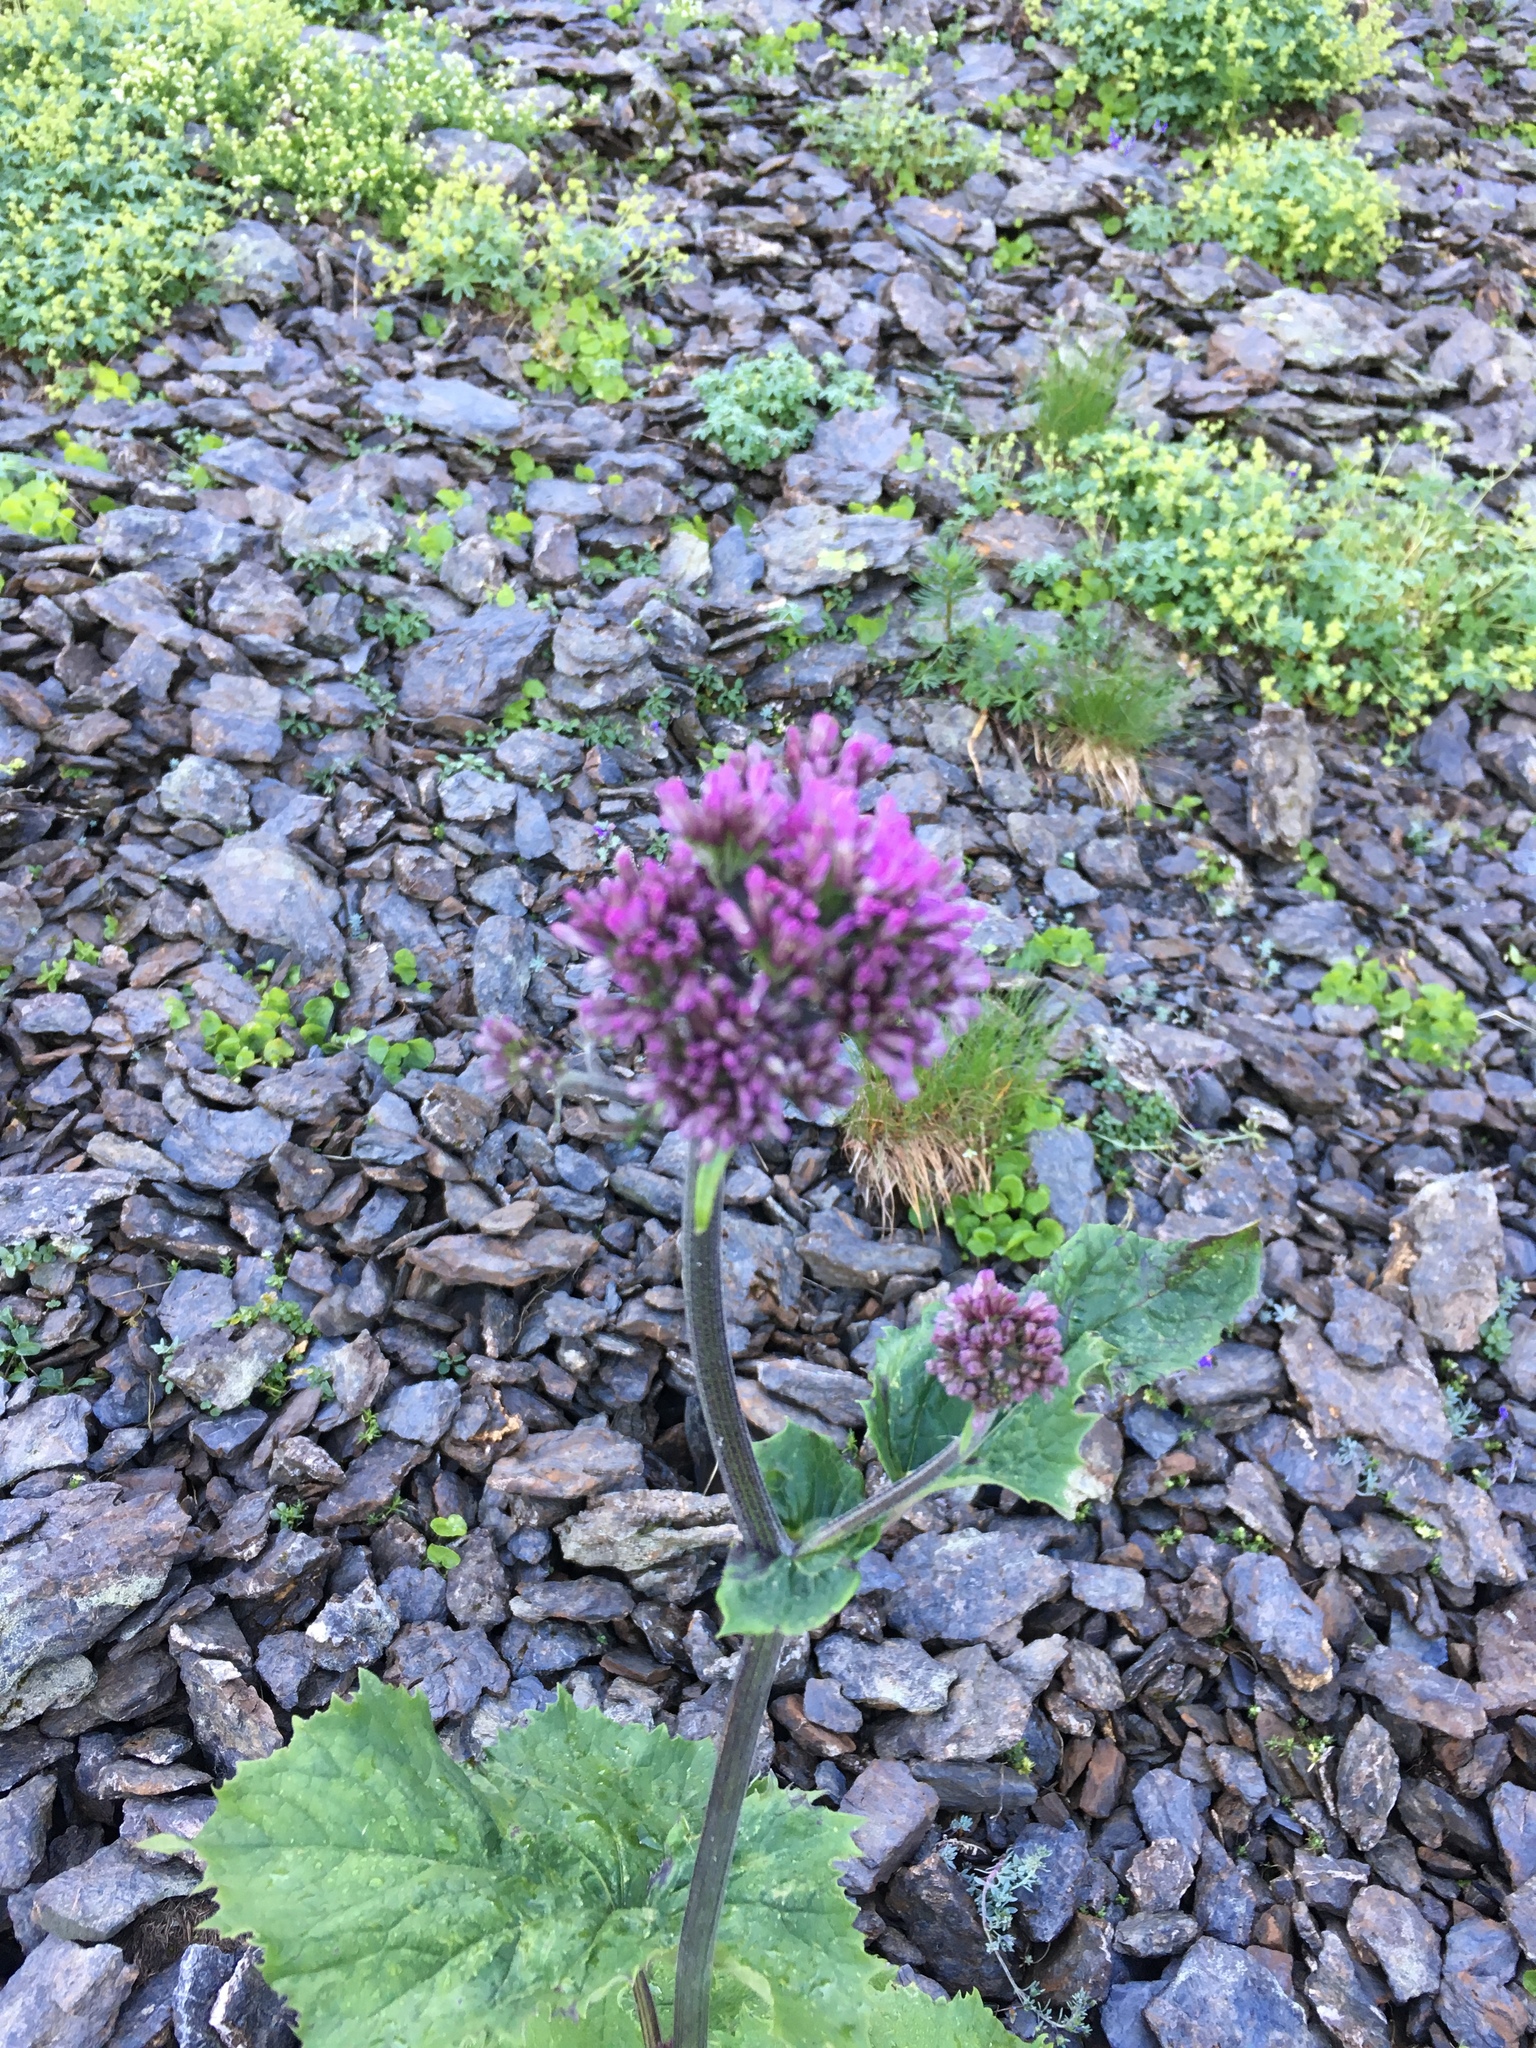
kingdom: Plantae
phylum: Tracheophyta
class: Magnoliopsida
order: Asterales
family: Asteraceae
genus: Adenostyles
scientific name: Adenostyles alliariae
